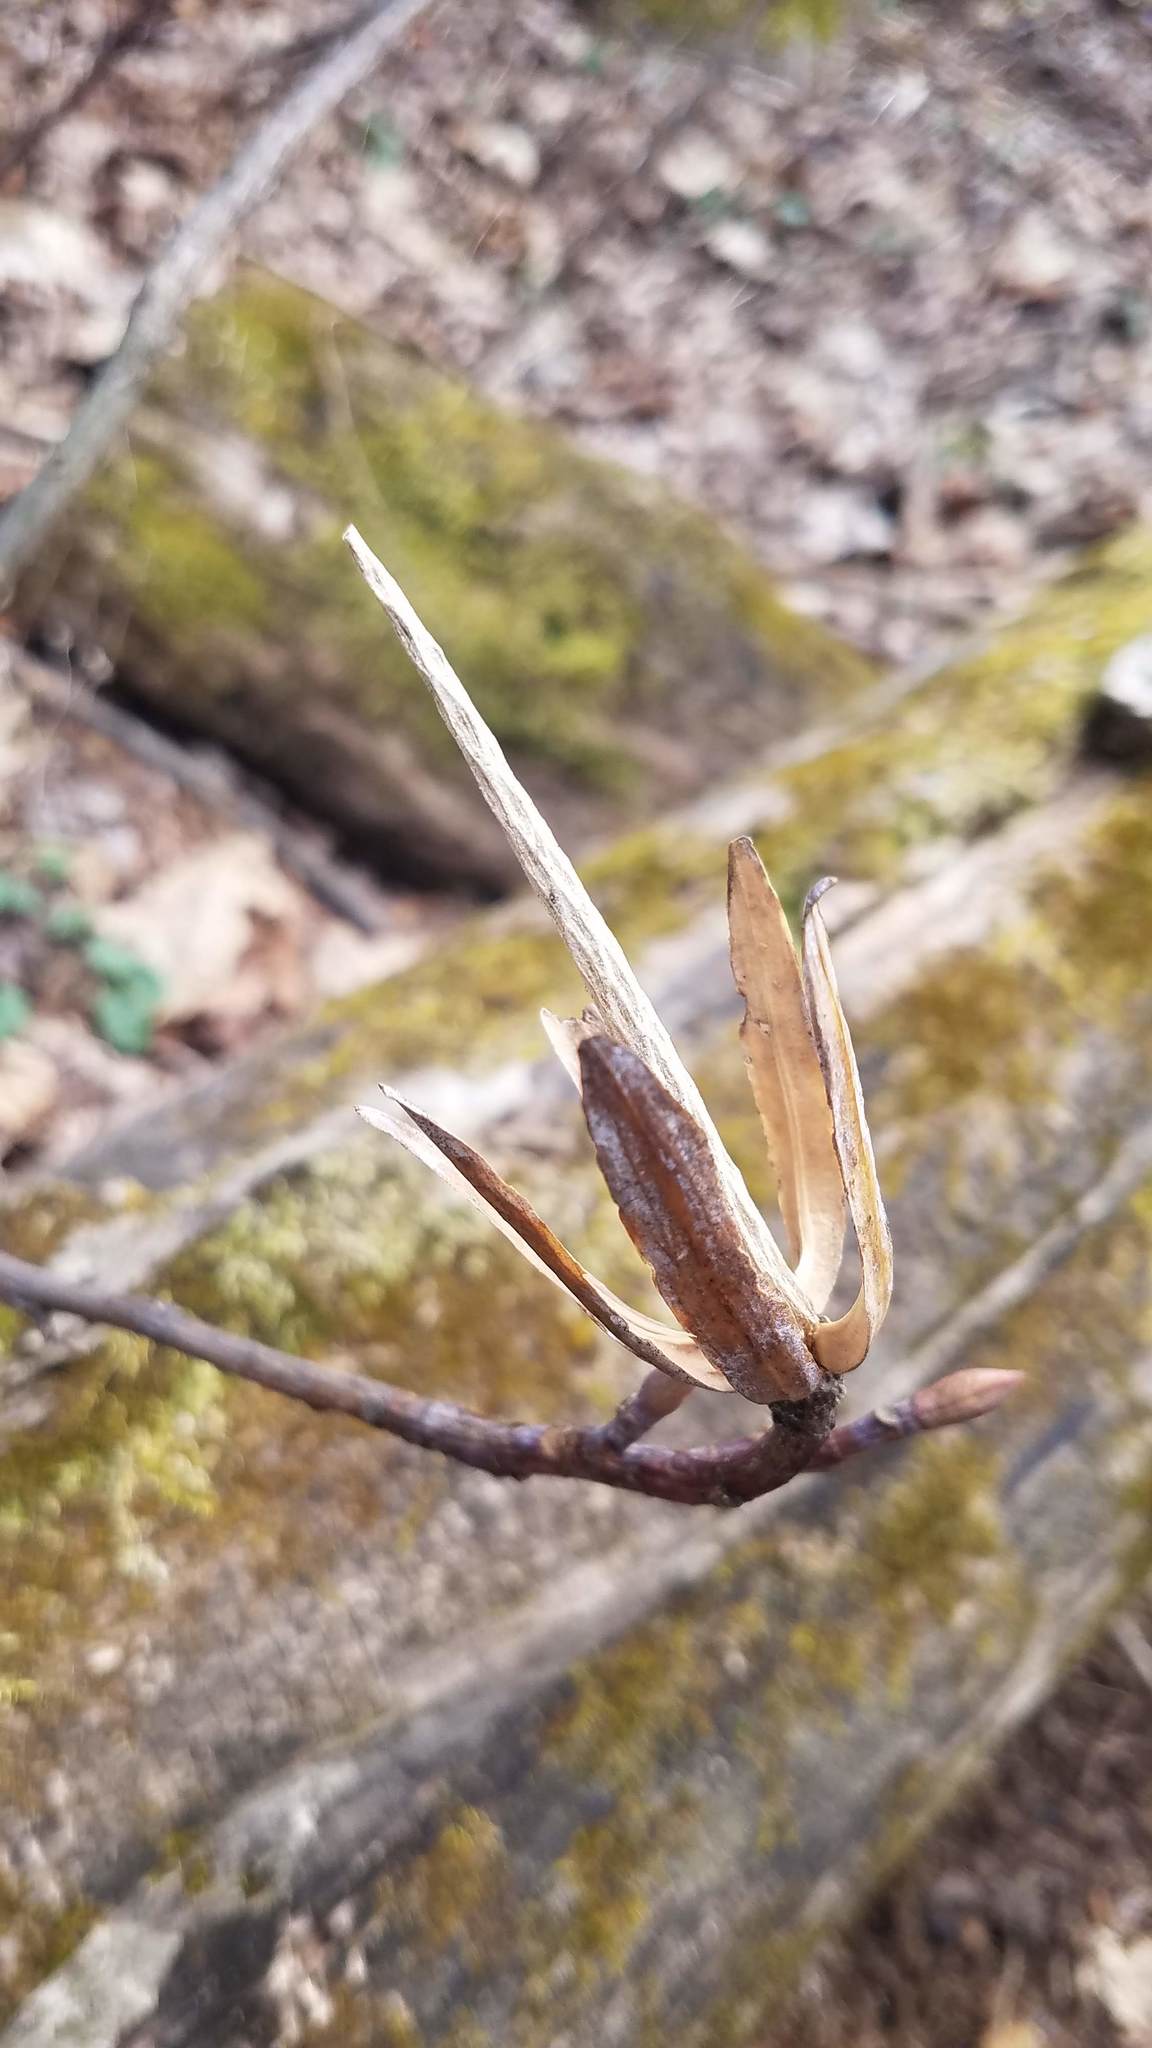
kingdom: Plantae
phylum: Tracheophyta
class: Magnoliopsida
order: Magnoliales
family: Magnoliaceae
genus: Liriodendron
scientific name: Liriodendron tulipifera
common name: Tulip tree
